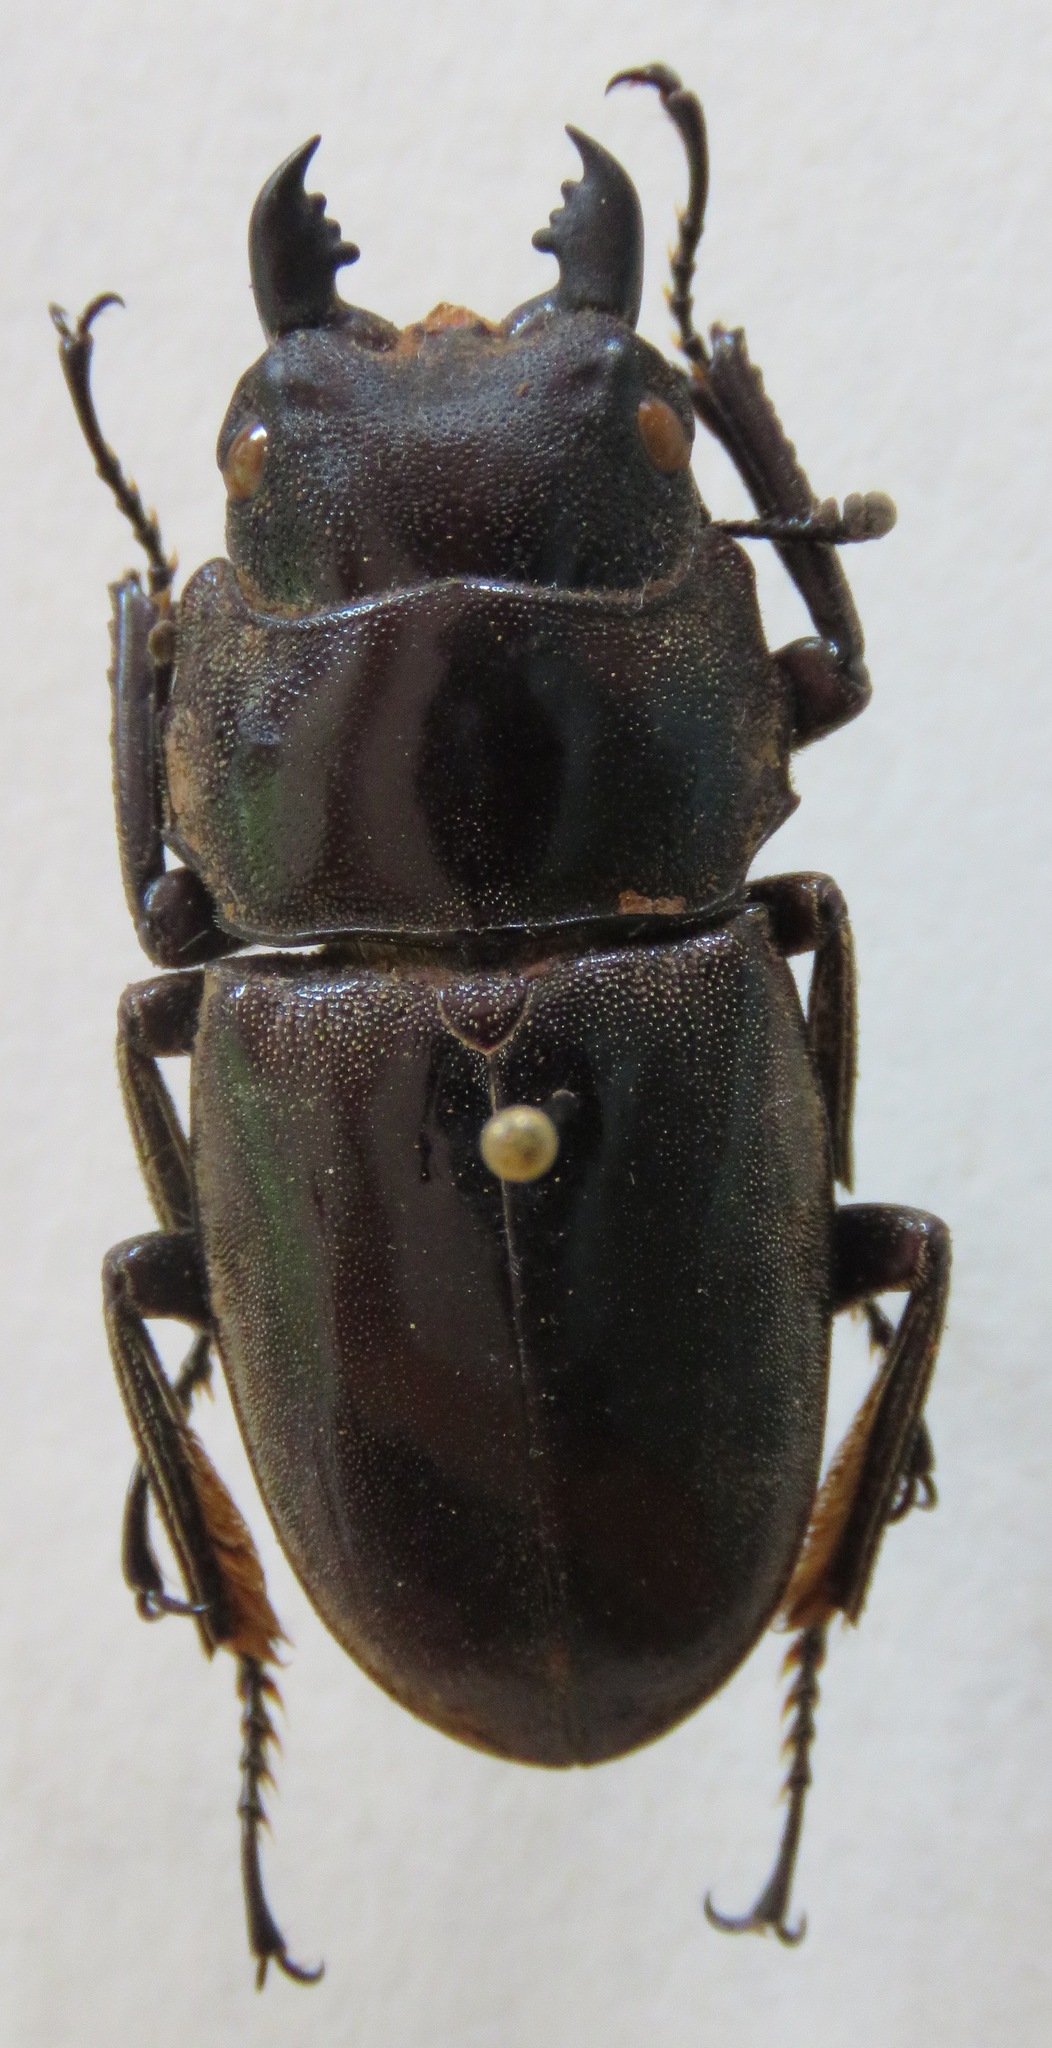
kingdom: Animalia
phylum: Arthropoda
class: Insecta
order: Coleoptera
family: Lucanidae
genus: Dorcus
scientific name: Dorcus townesi
